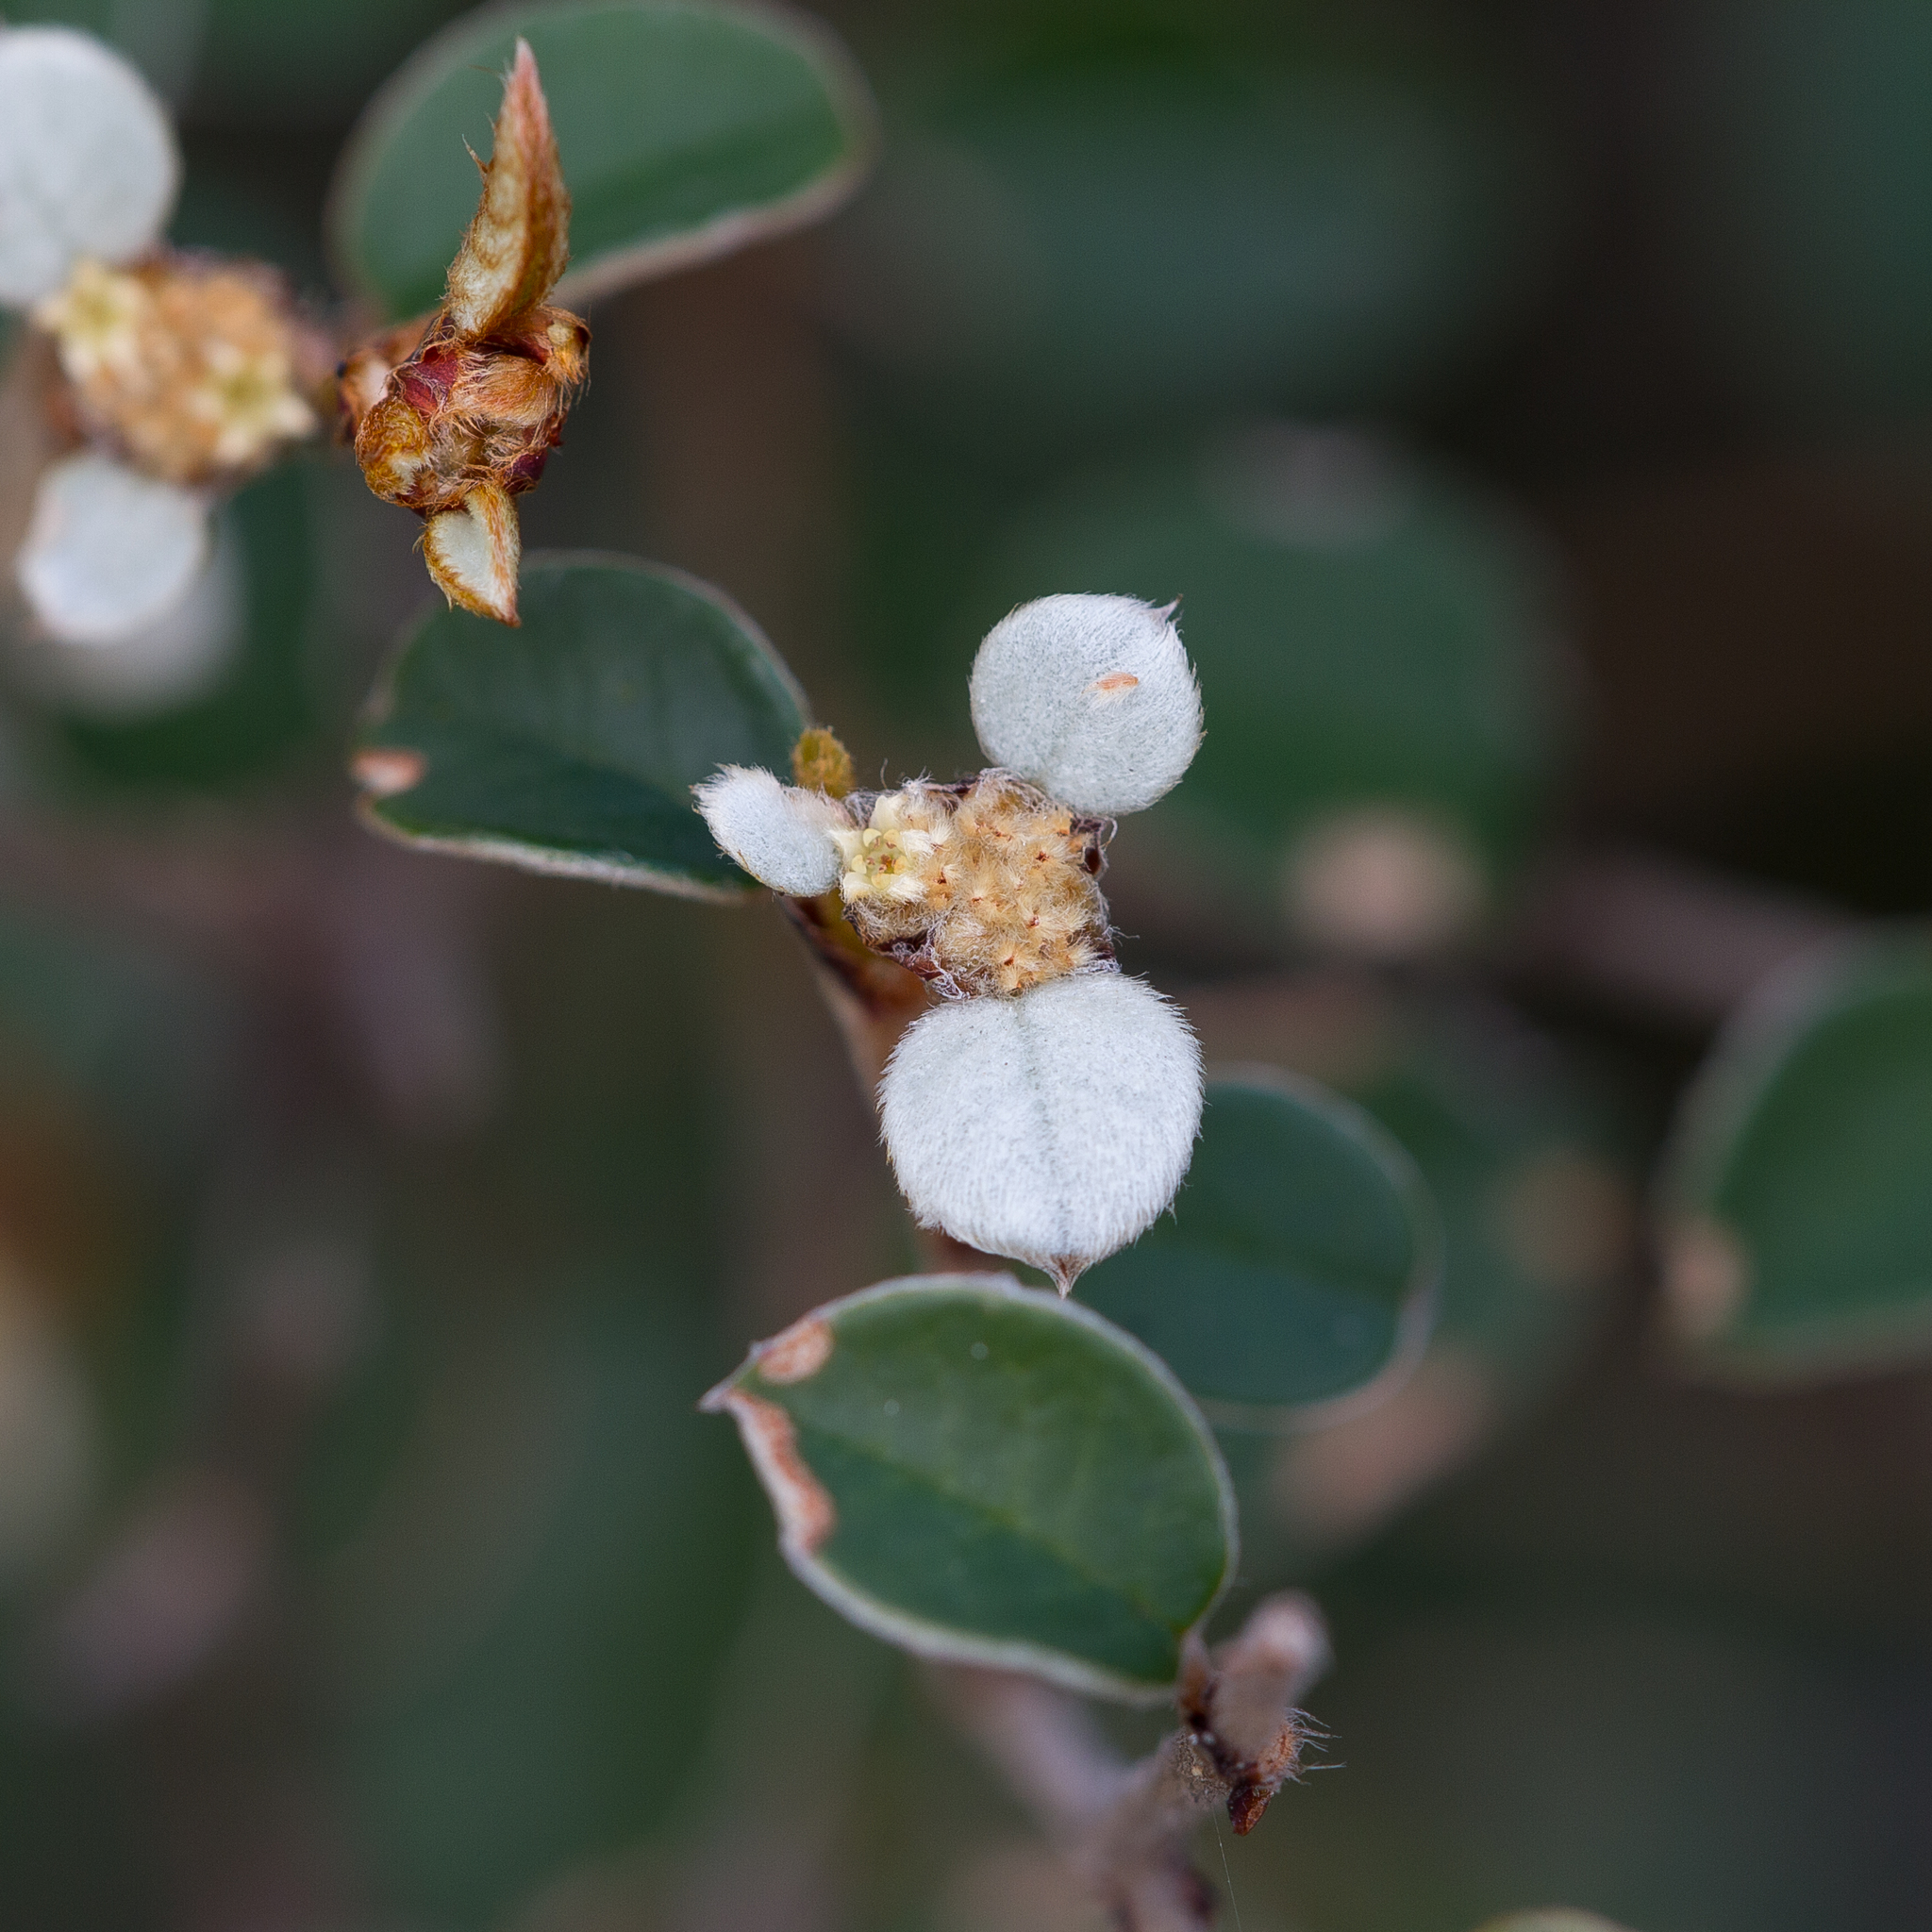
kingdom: Plantae
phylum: Tracheophyta
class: Magnoliopsida
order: Rosales
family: Rhamnaceae
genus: Spyridium
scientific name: Spyridium thymifolium
